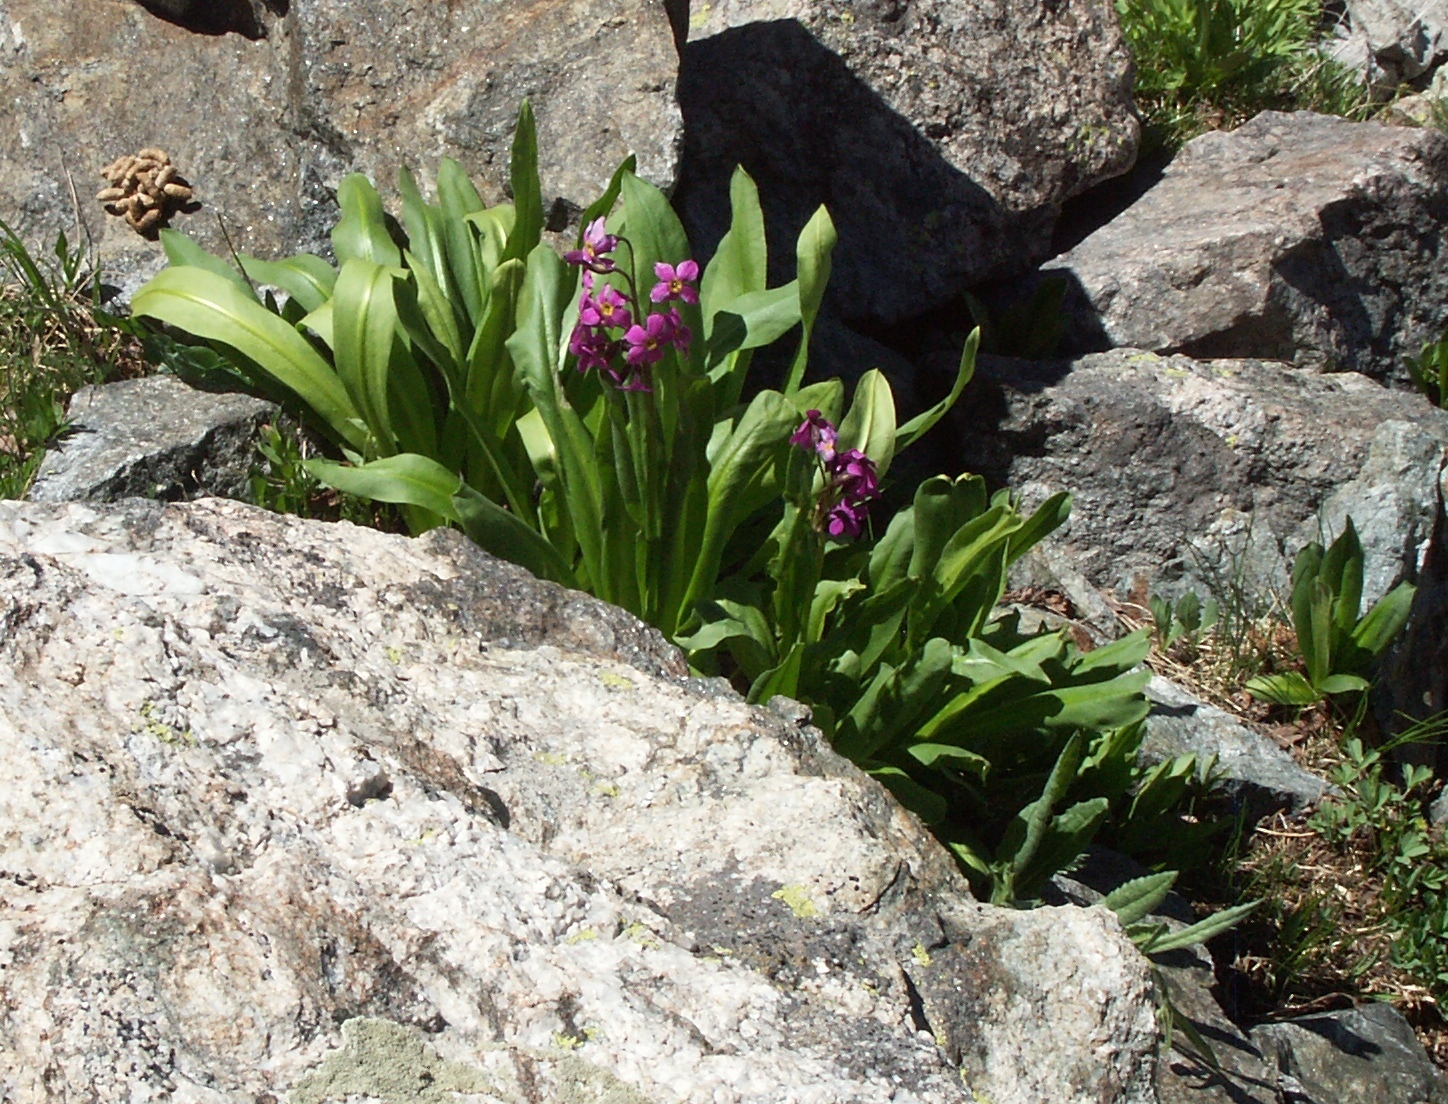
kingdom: Plantae
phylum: Tracheophyta
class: Magnoliopsida
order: Ericales
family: Primulaceae
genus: Primula
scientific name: Primula parryi
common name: Parry's primrose
